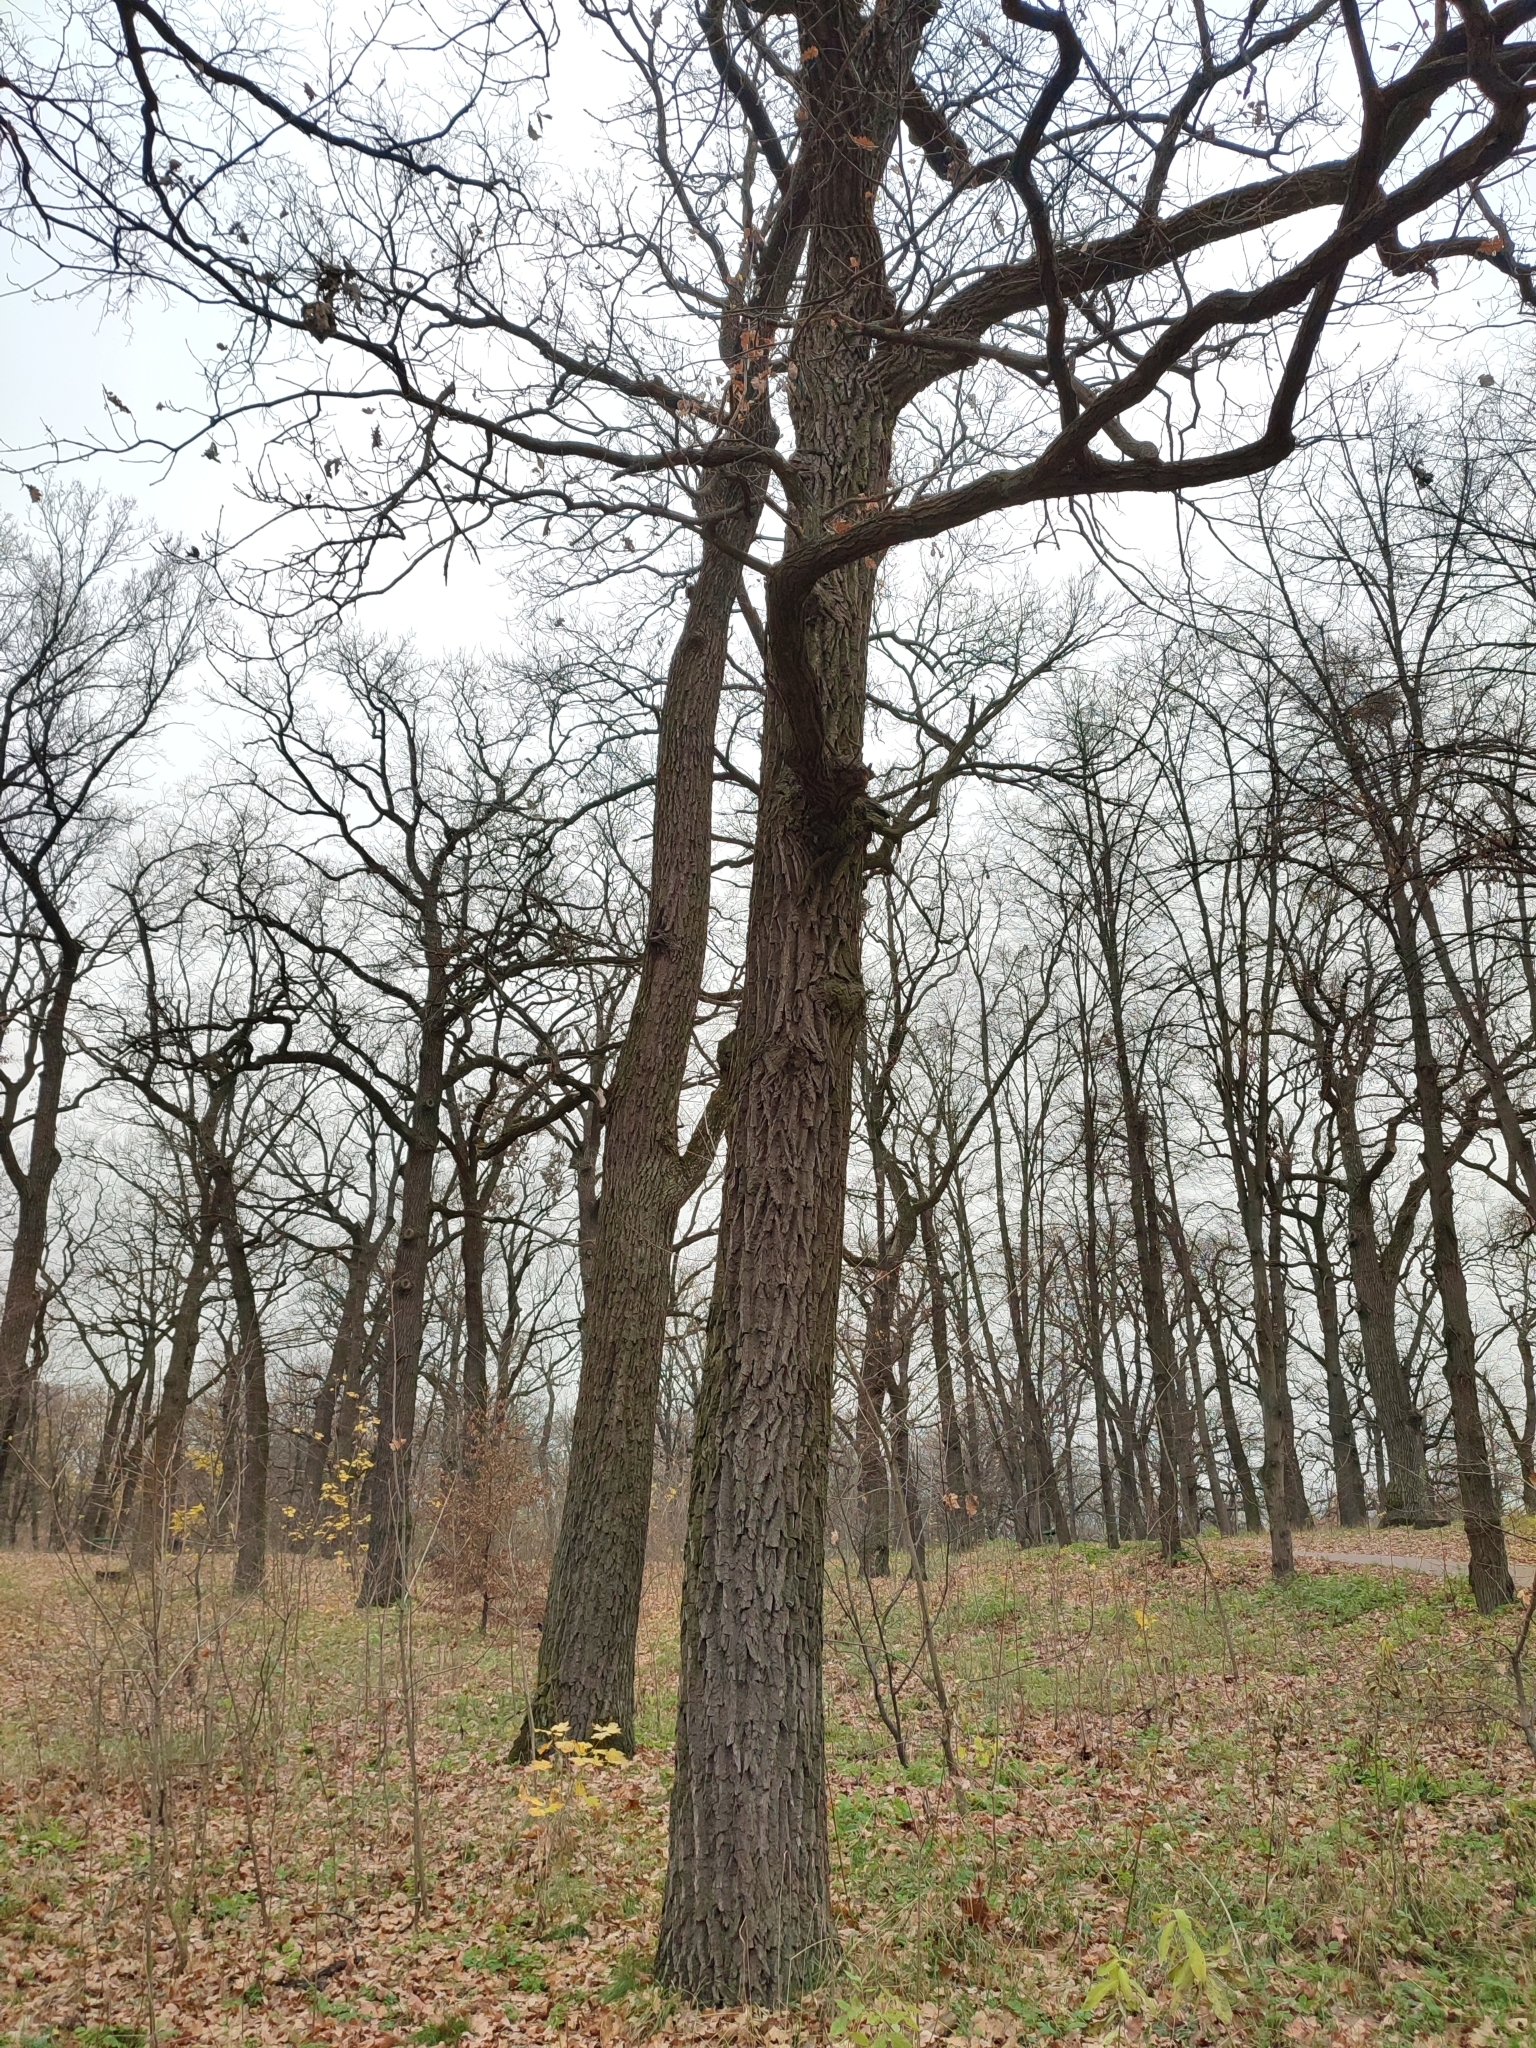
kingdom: Plantae
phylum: Tracheophyta
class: Magnoliopsida
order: Fagales
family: Fagaceae
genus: Quercus
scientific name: Quercus robur
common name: Pedunculate oak
